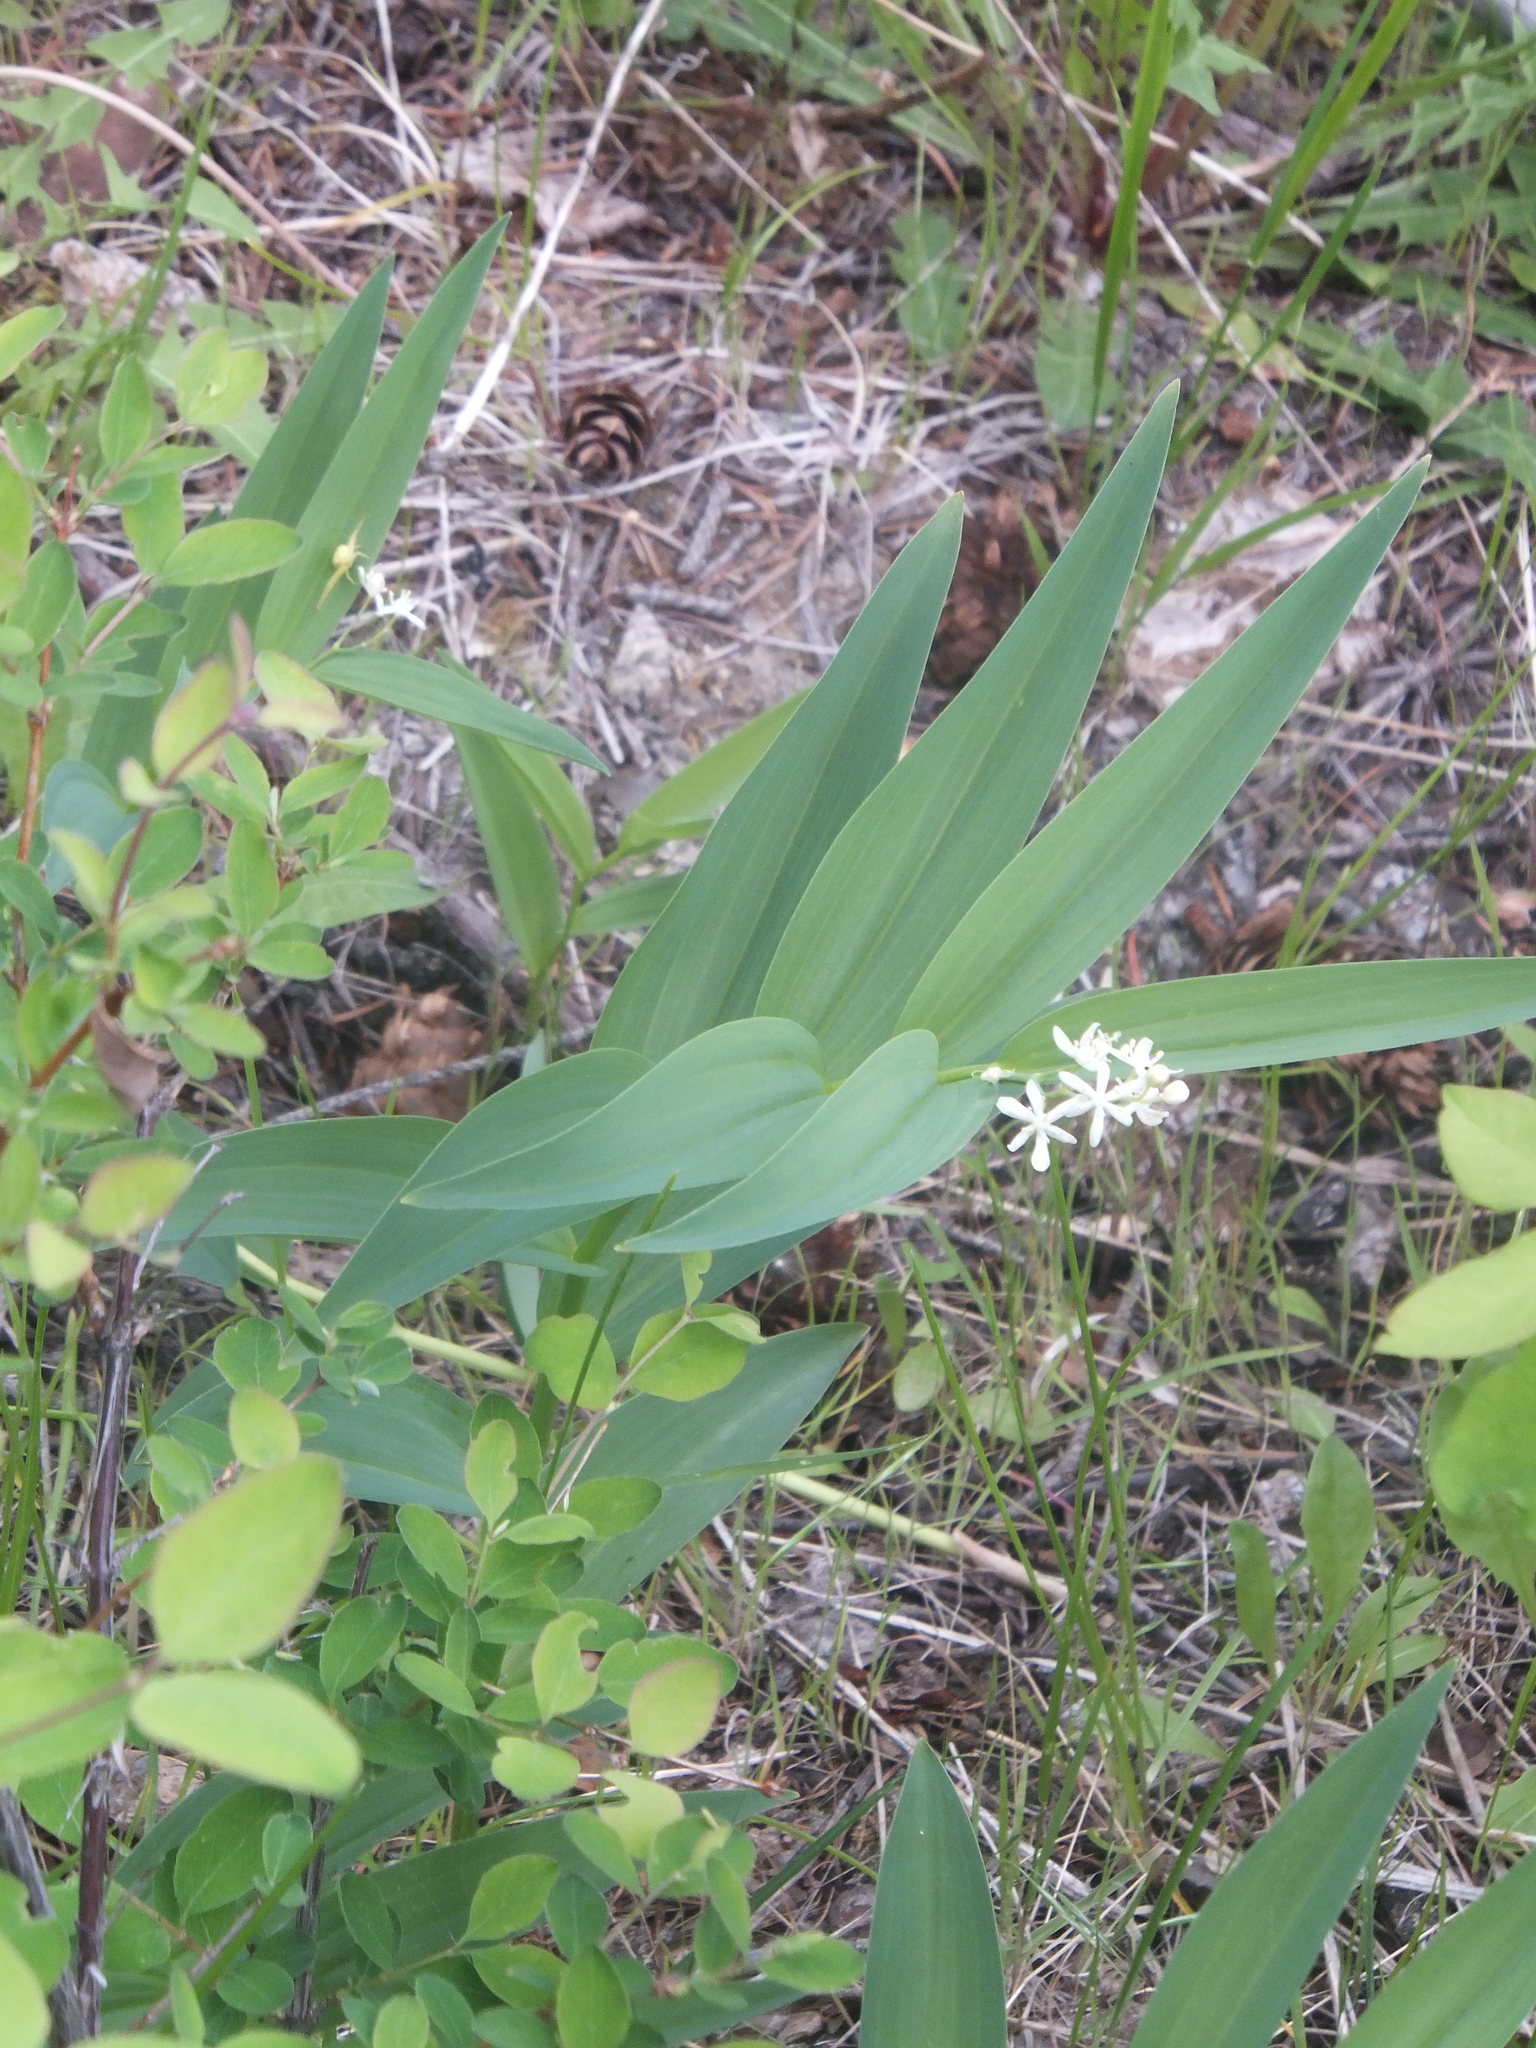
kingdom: Plantae
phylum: Tracheophyta
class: Liliopsida
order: Asparagales
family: Asparagaceae
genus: Maianthemum
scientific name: Maianthemum stellatum
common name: Little false solomon's seal
